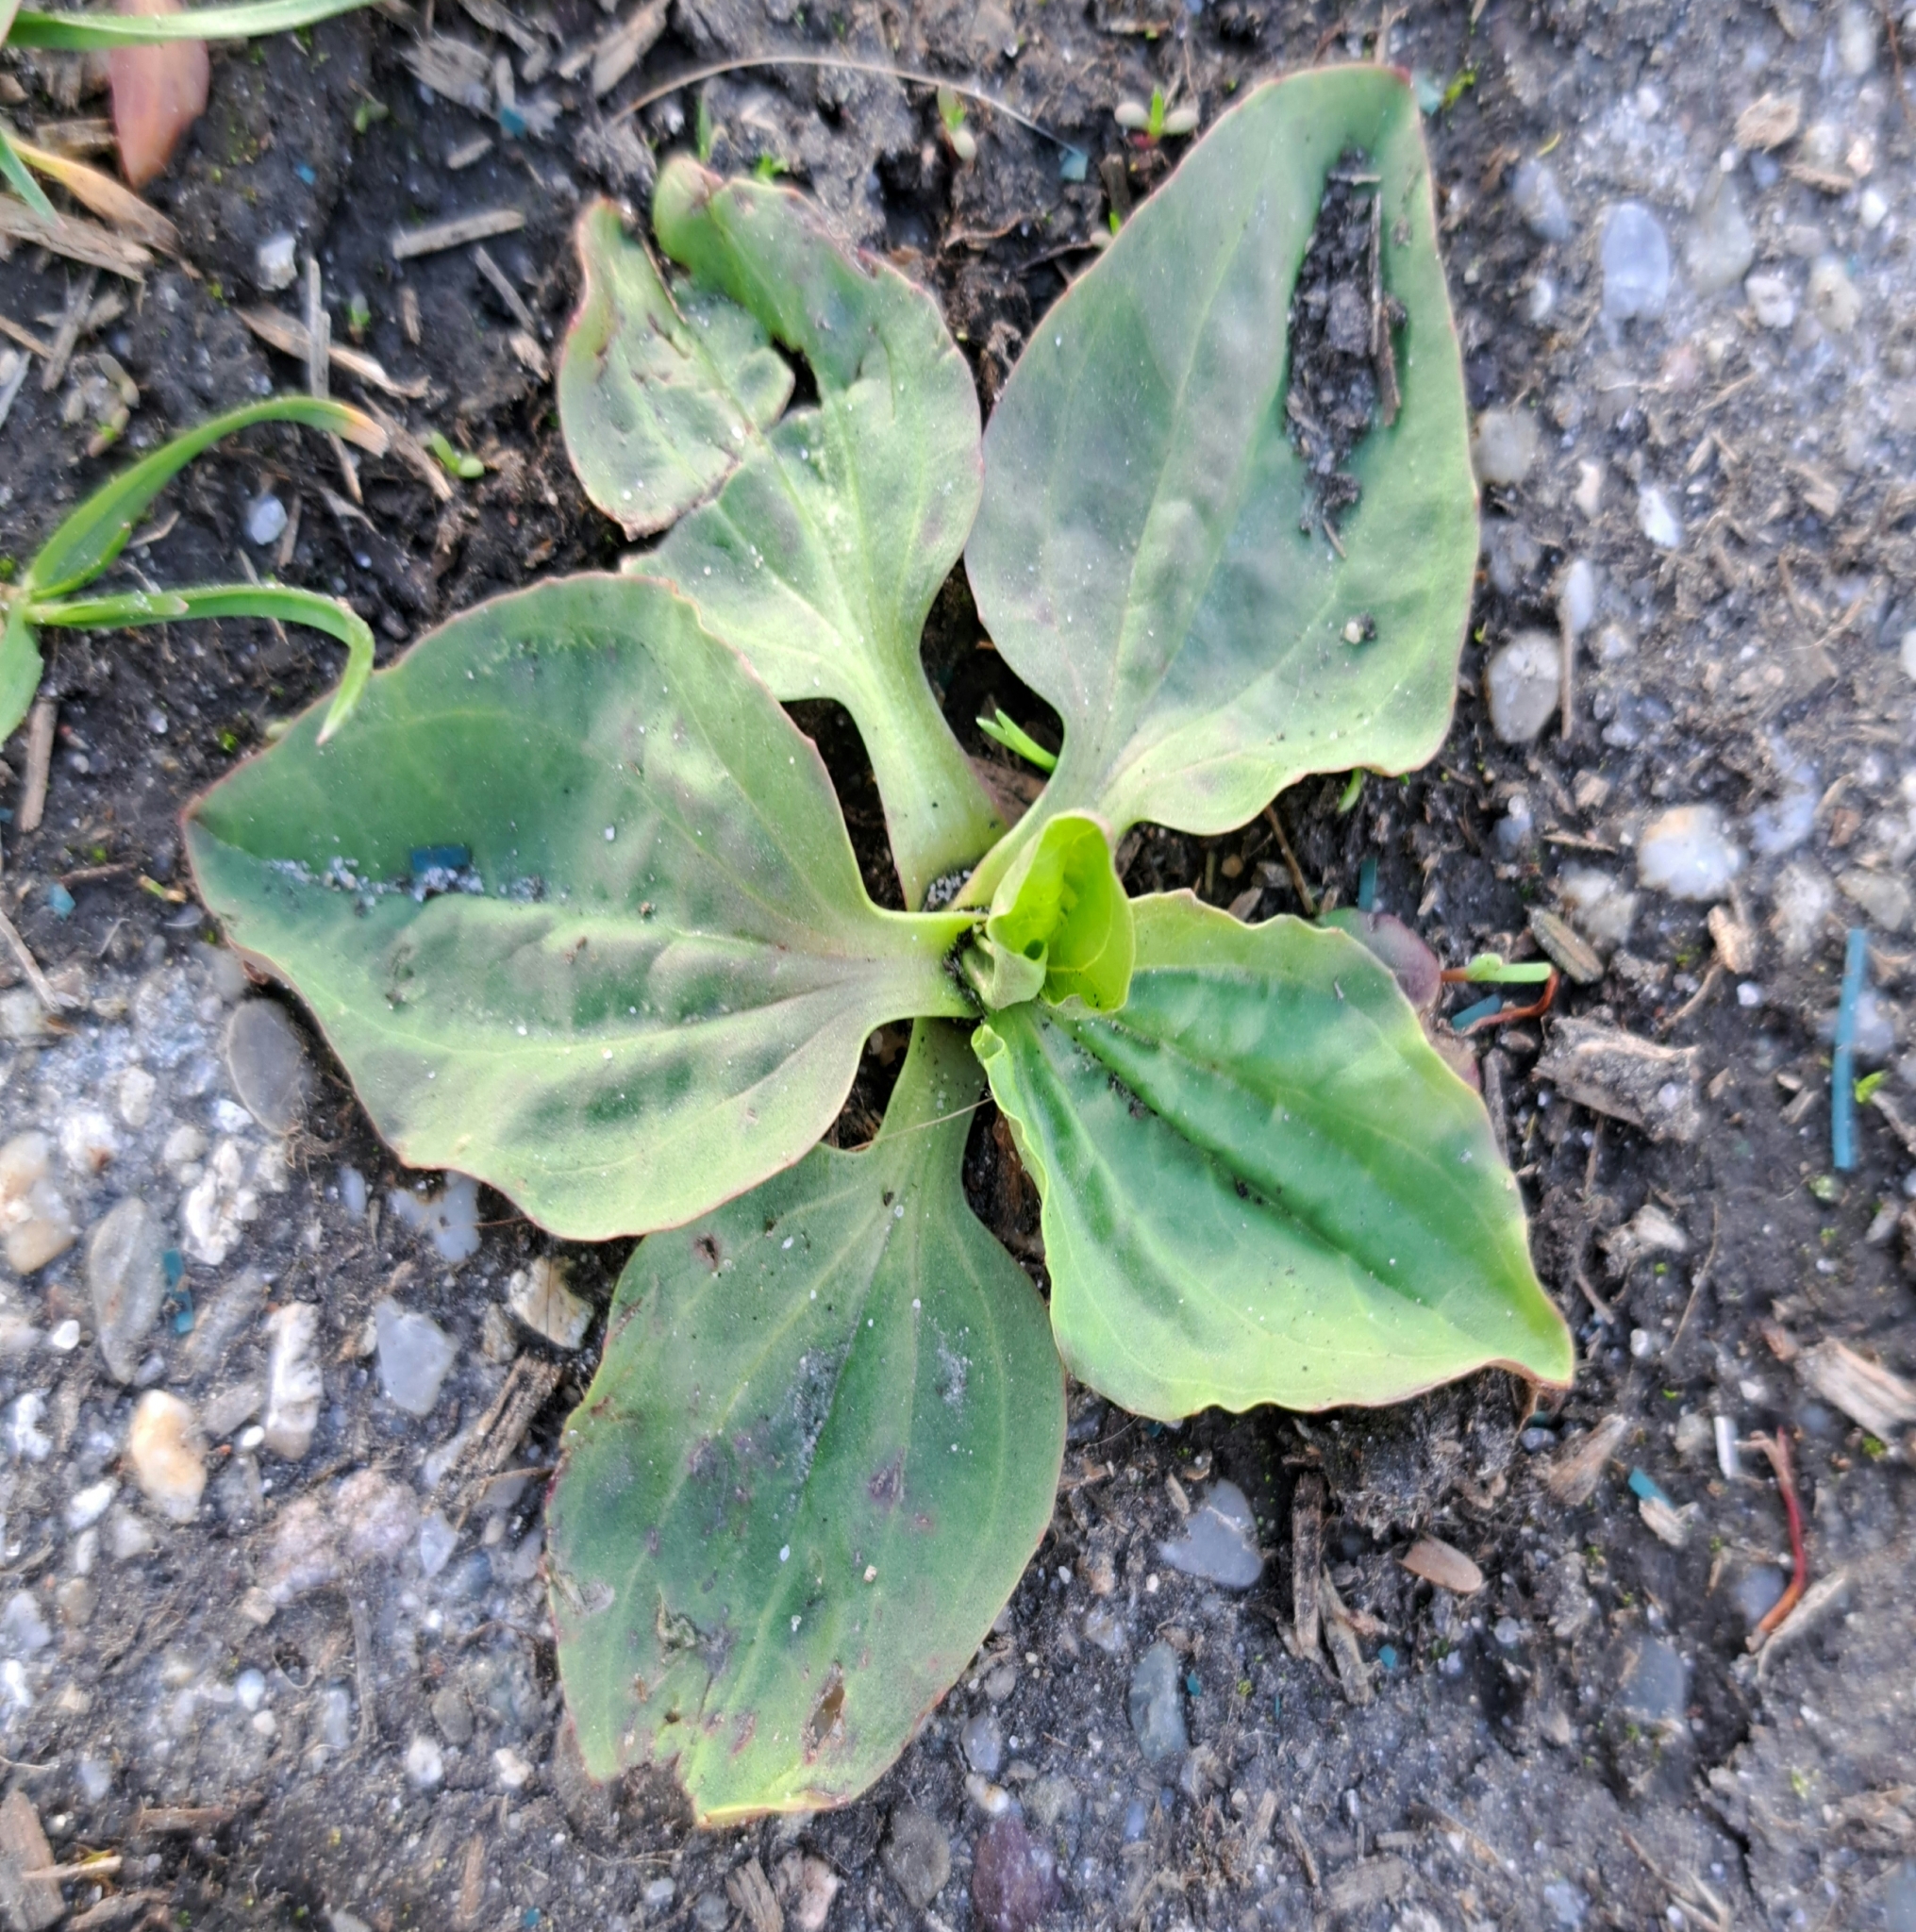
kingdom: Plantae
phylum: Tracheophyta
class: Magnoliopsida
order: Lamiales
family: Plantaginaceae
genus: Plantago
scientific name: Plantago major
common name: Common plantain
